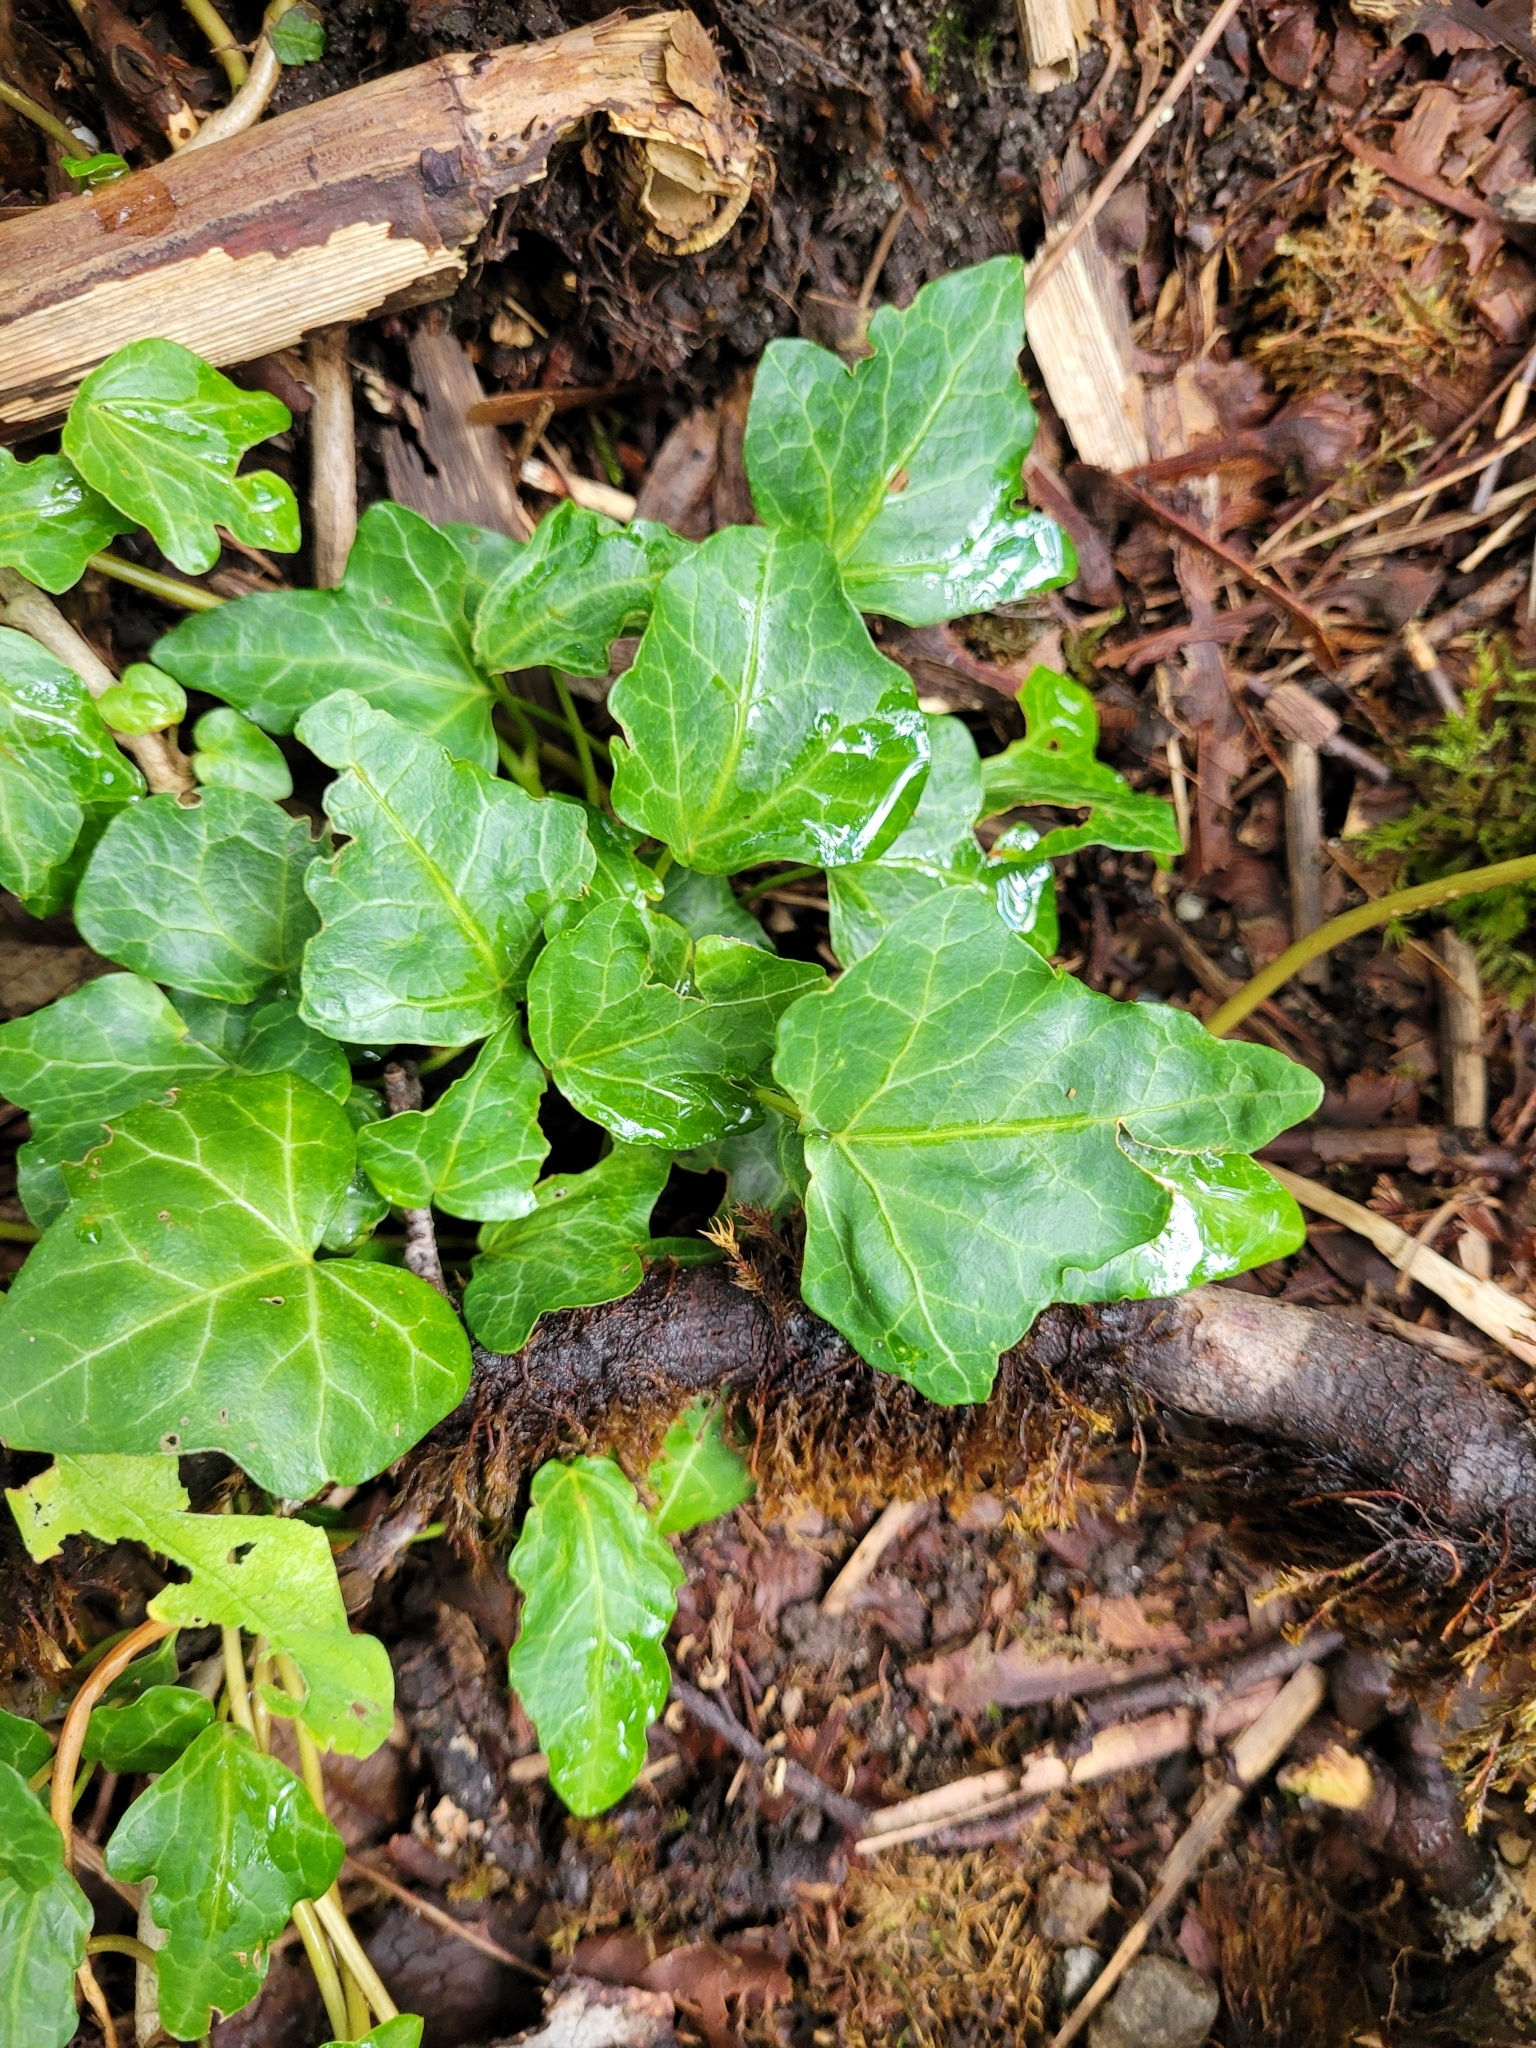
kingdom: Plantae
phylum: Tracheophyta
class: Magnoliopsida
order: Apiales
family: Araliaceae
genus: Hedera
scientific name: Hedera helix
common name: Ivy
